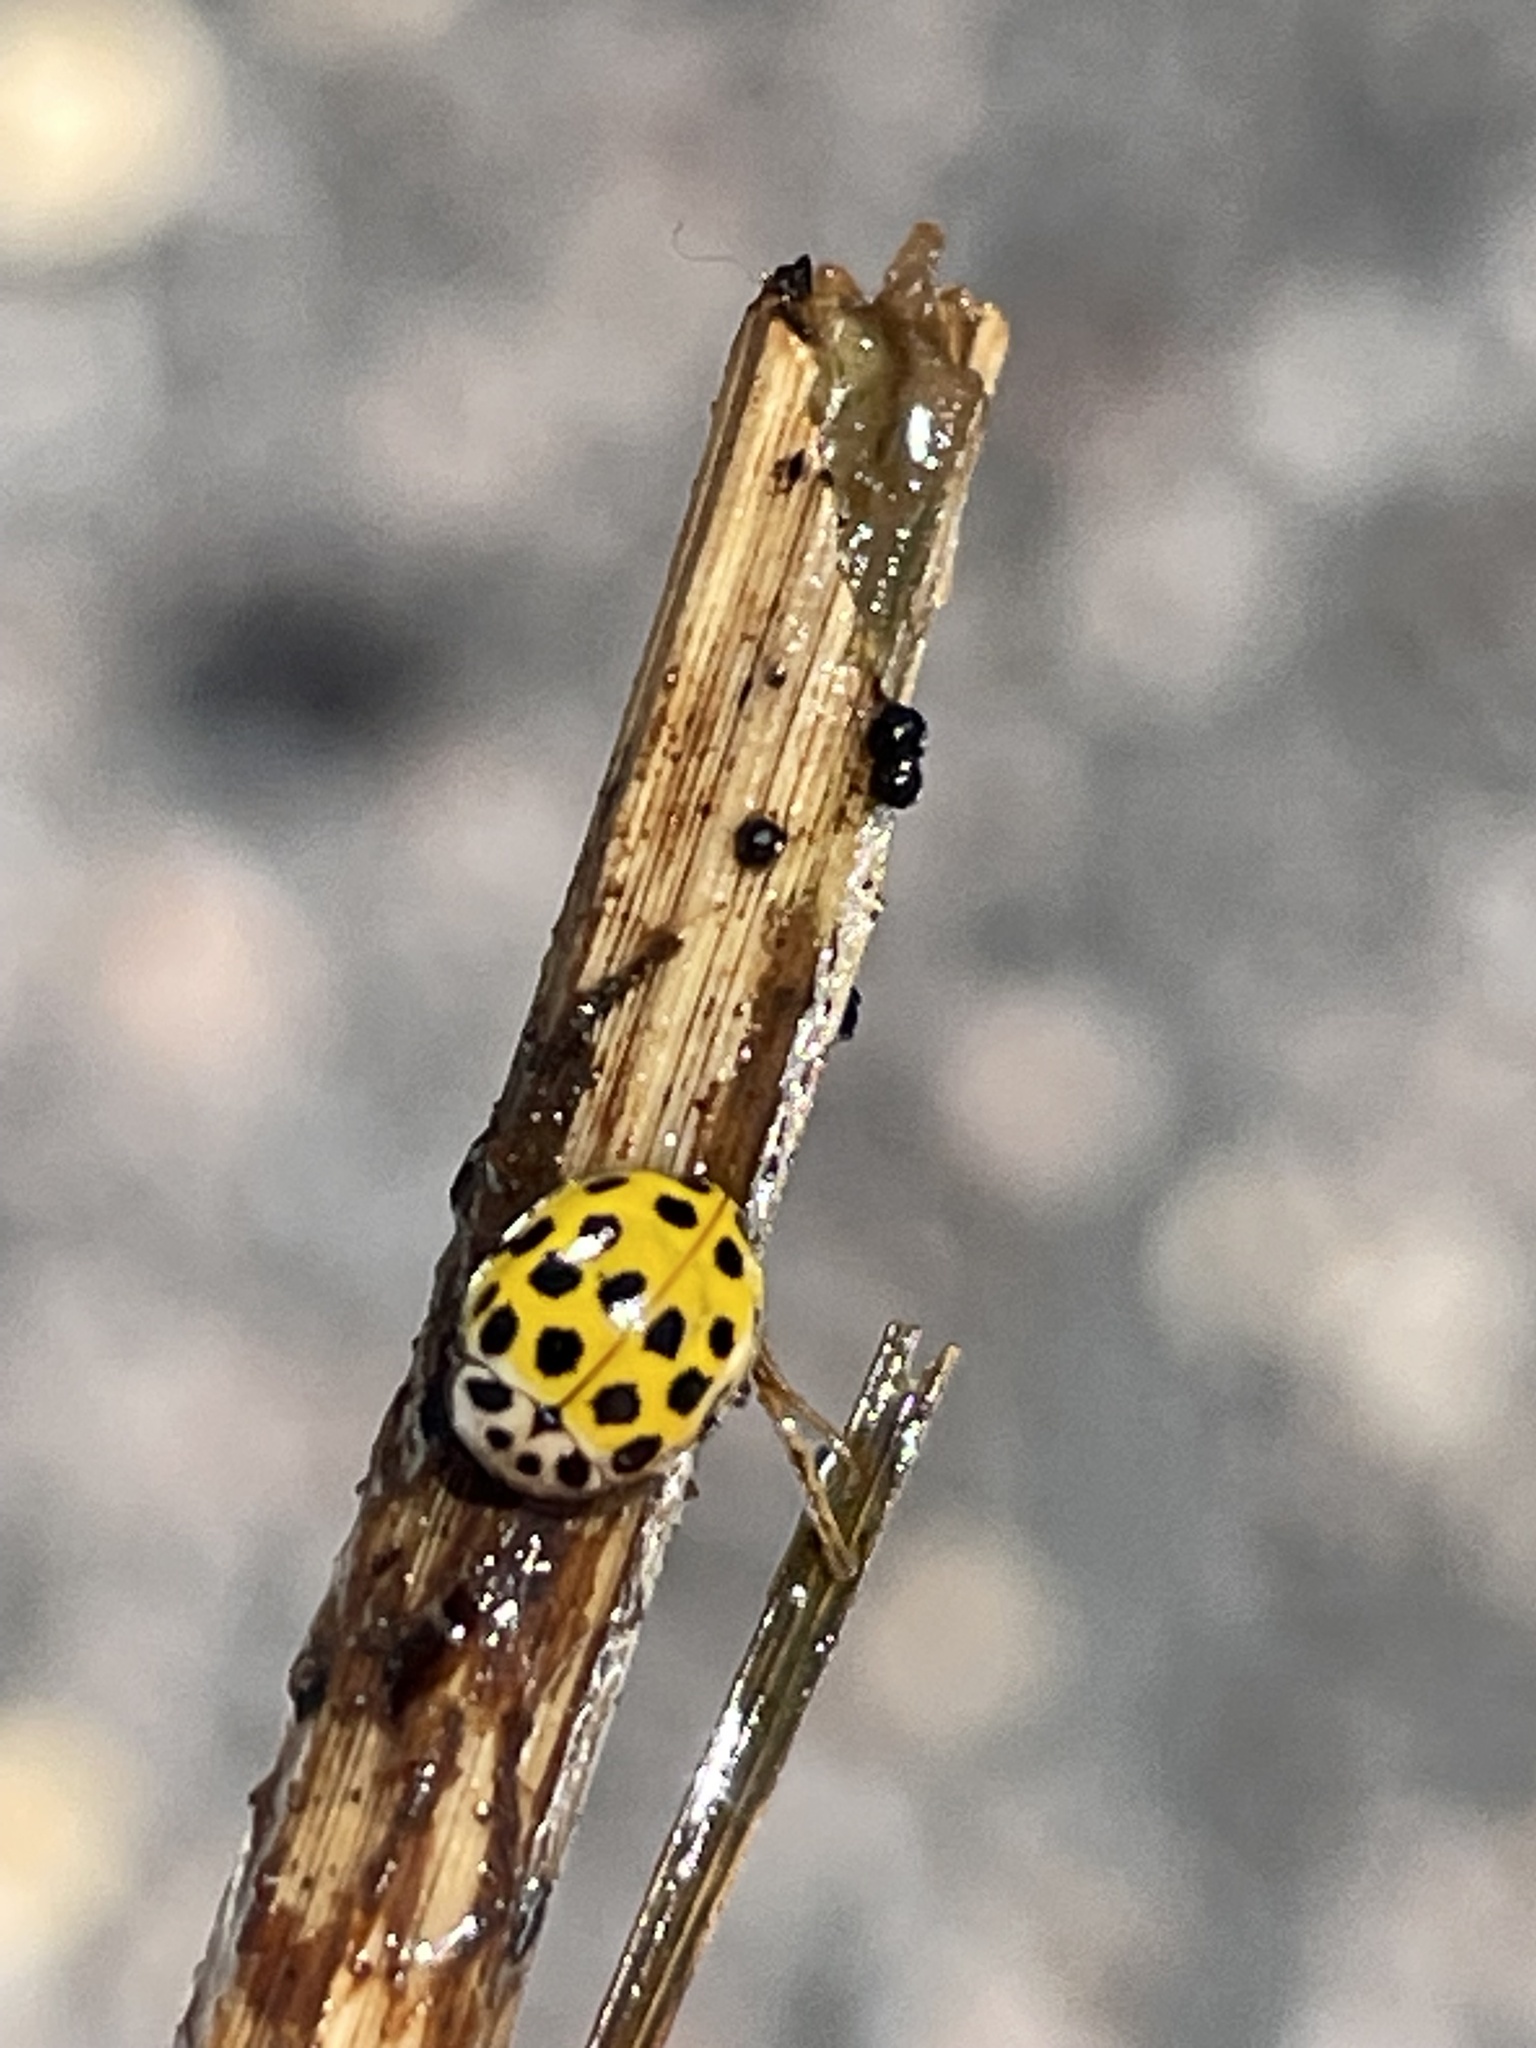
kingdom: Animalia
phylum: Arthropoda
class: Insecta
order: Coleoptera
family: Coccinellidae
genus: Psyllobora
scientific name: Psyllobora vigintiduopunctata
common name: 22-spot ladybird
